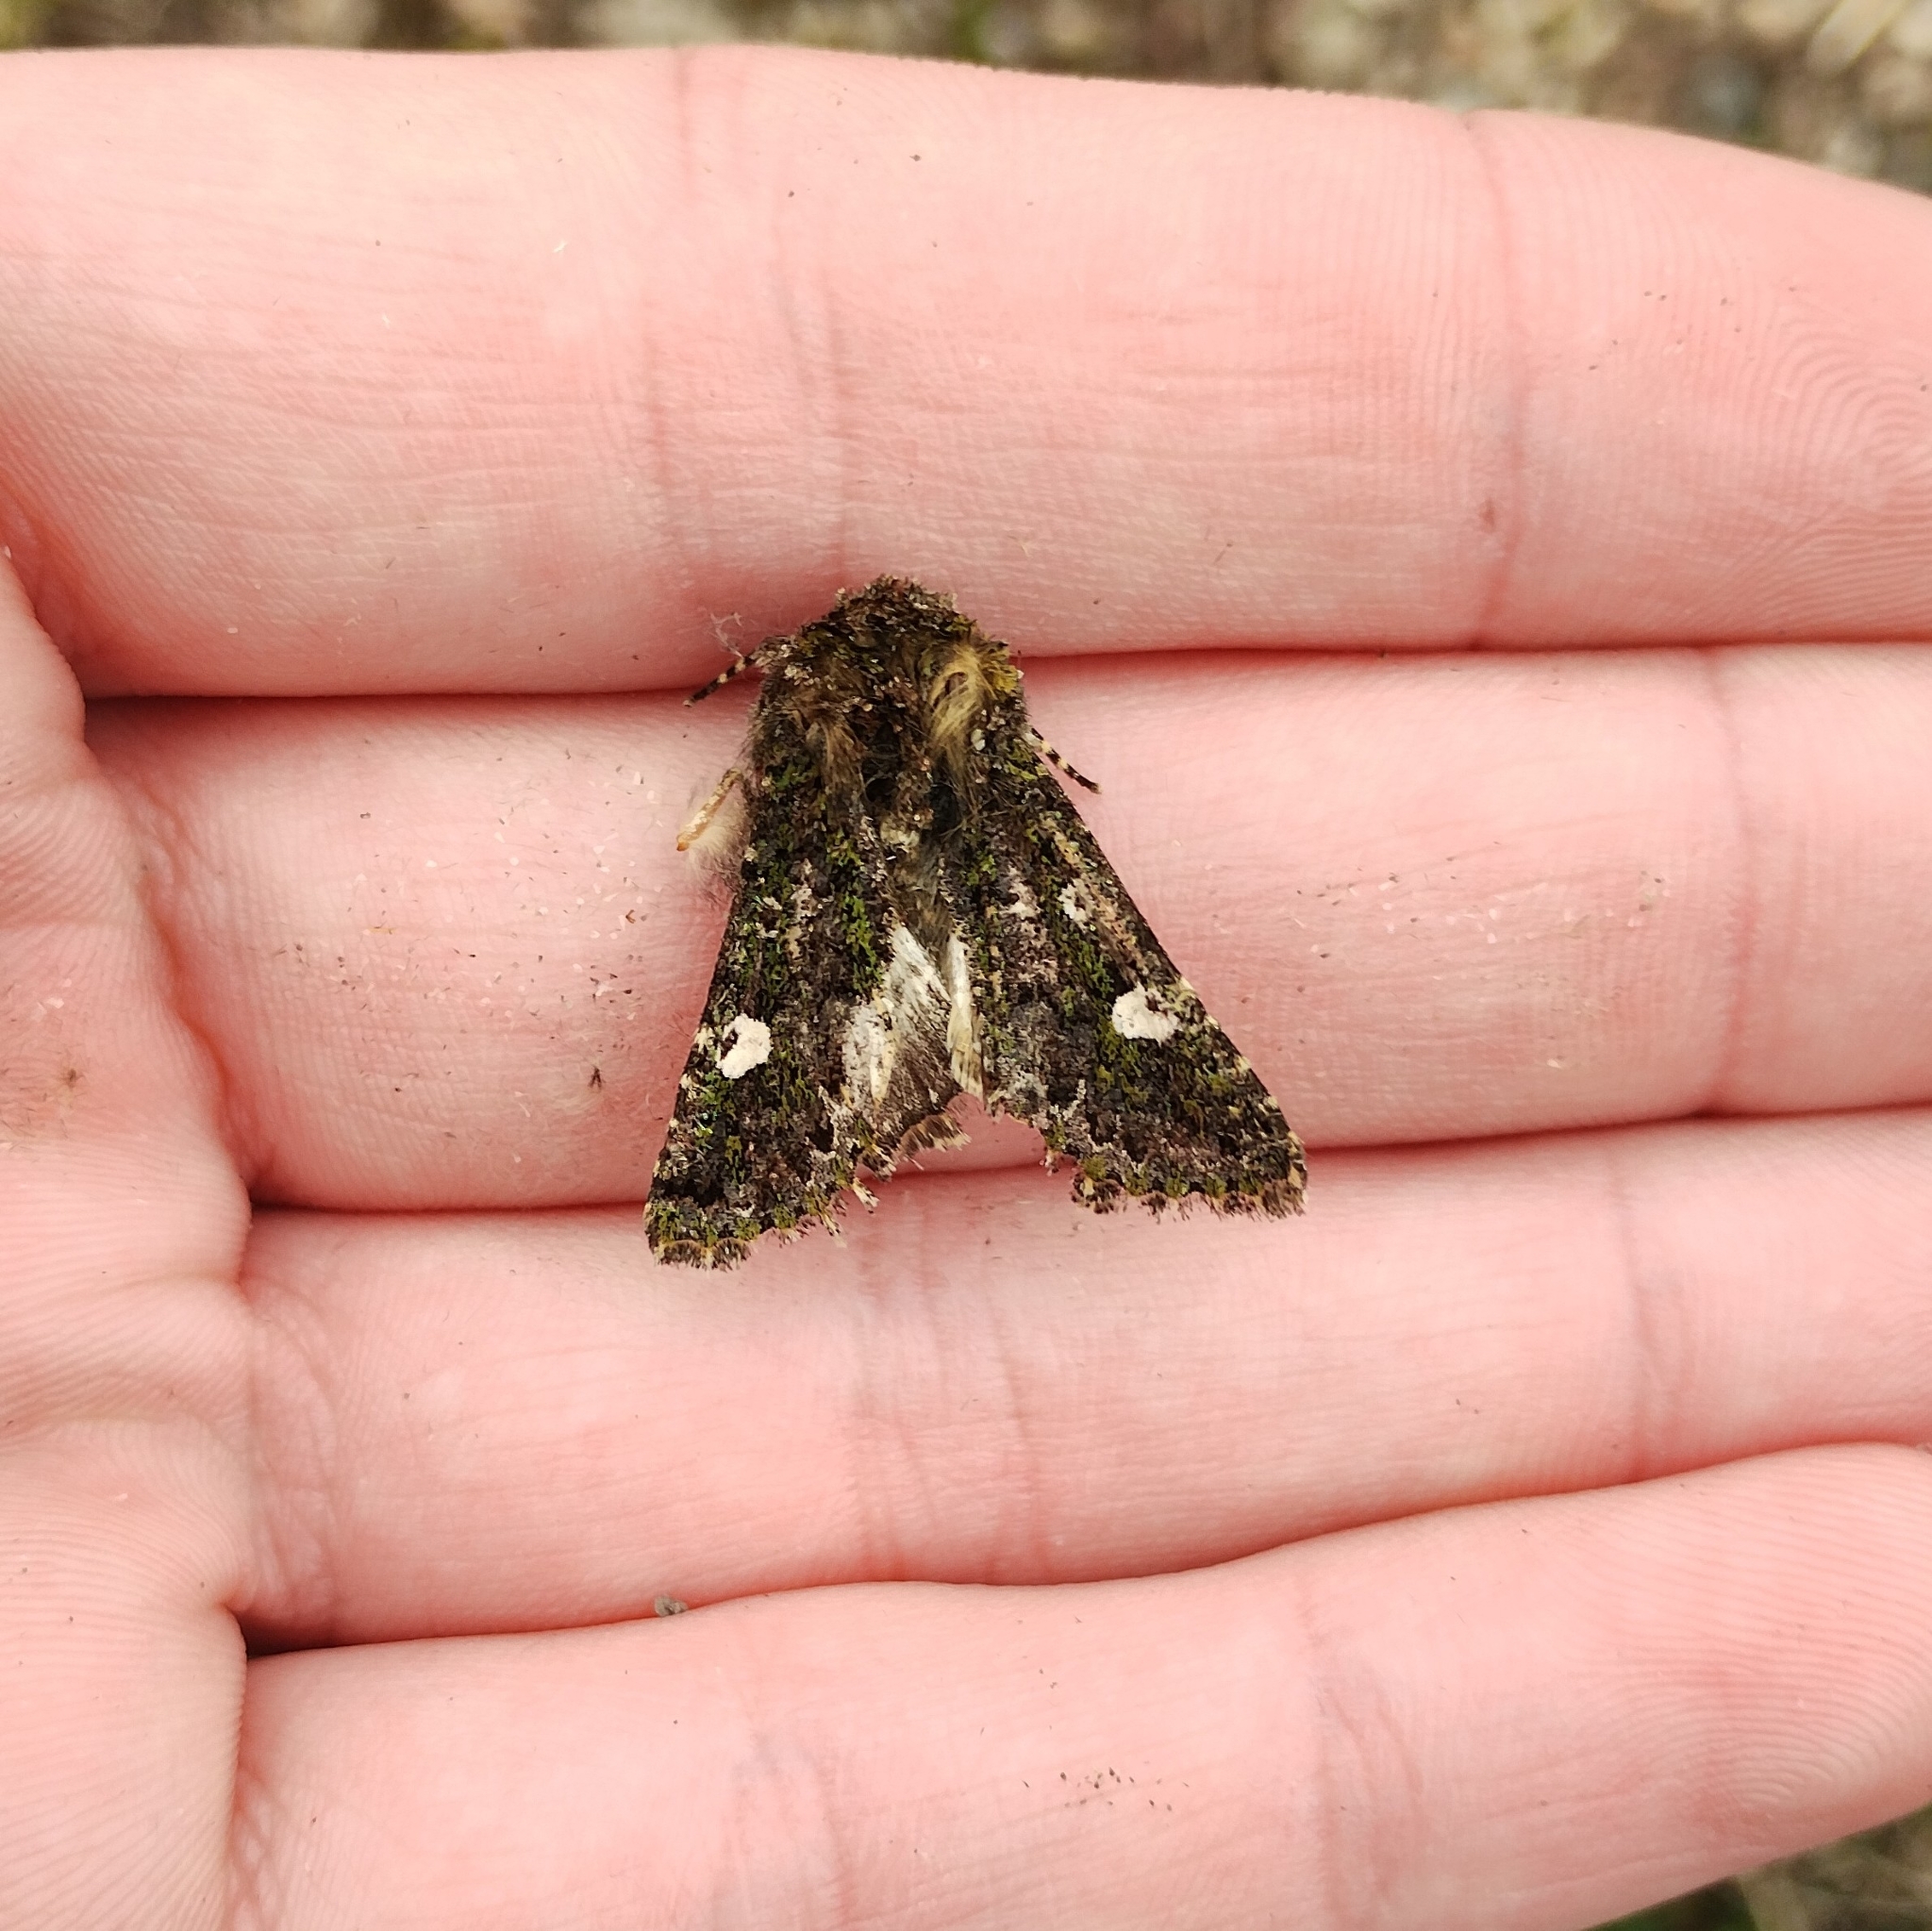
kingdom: Animalia
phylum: Arthropoda
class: Insecta
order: Lepidoptera
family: Noctuidae
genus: Valeria
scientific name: Valeria oleagina
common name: Green-brindled dot
